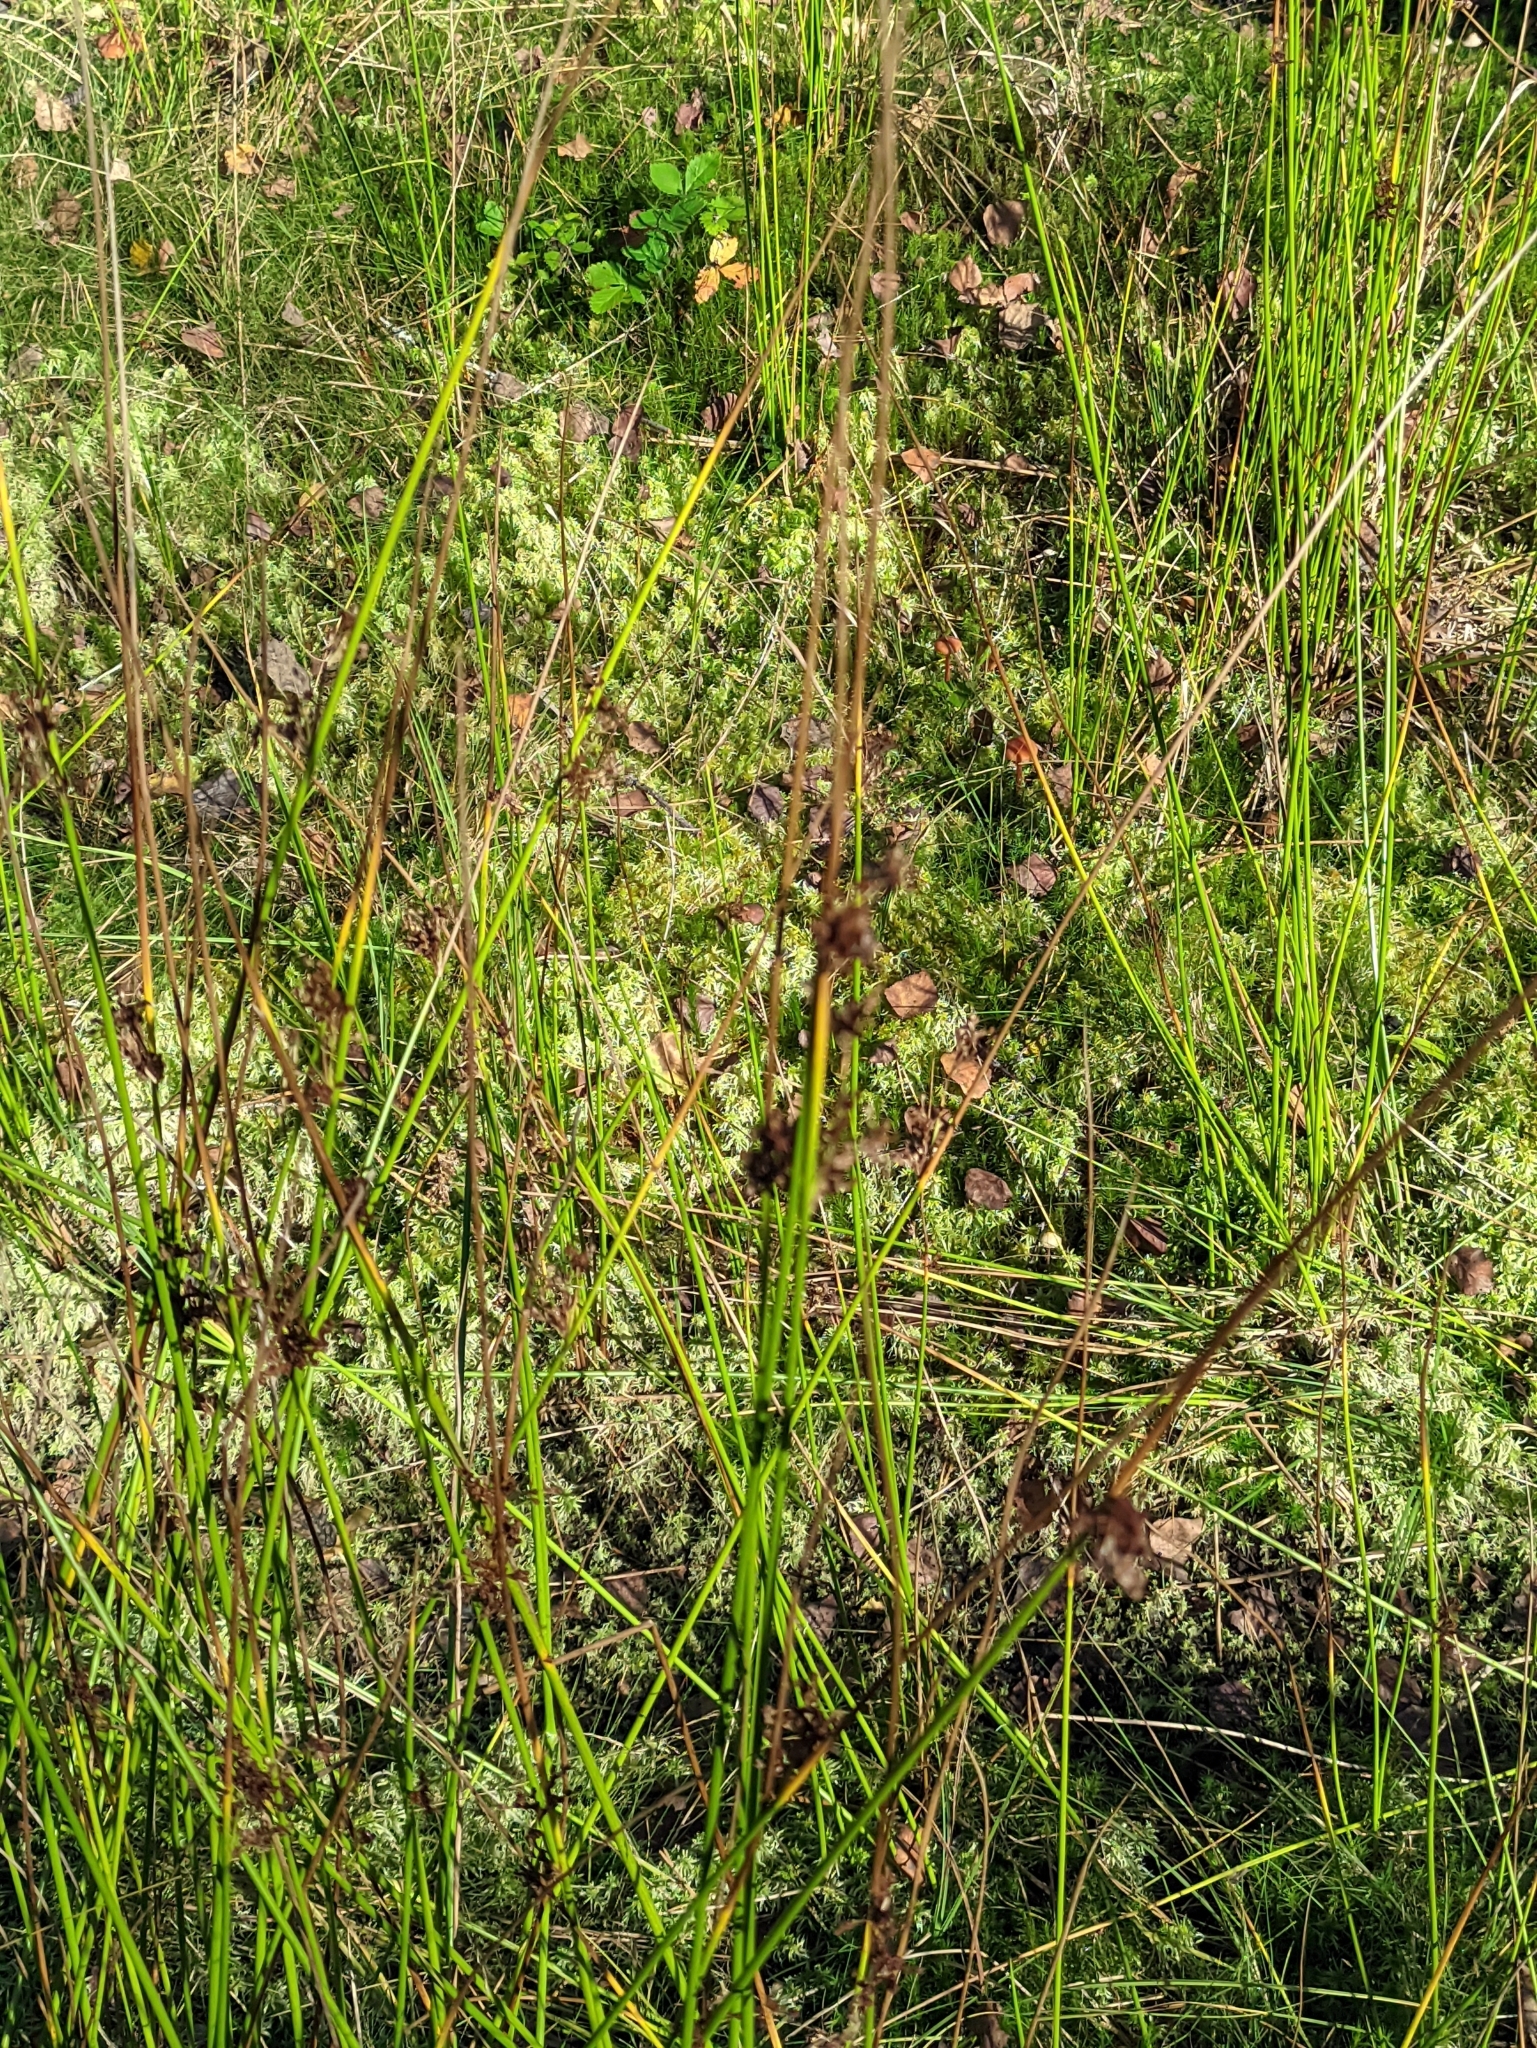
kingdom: Plantae
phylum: Tracheophyta
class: Liliopsida
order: Poales
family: Juncaceae
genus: Juncus
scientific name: Juncus effusus
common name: Soft rush
